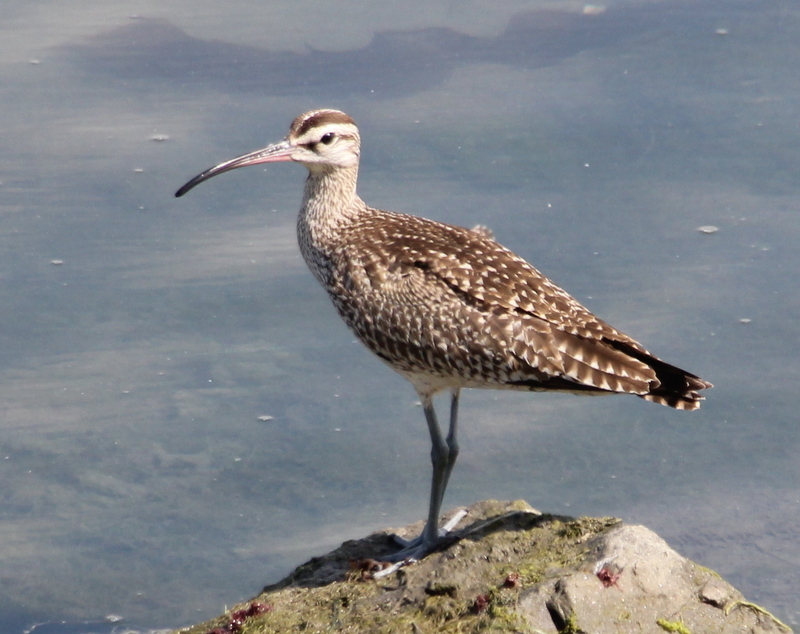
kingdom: Animalia
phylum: Chordata
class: Aves
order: Charadriiformes
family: Scolopacidae
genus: Numenius
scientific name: Numenius phaeopus
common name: Whimbrel
